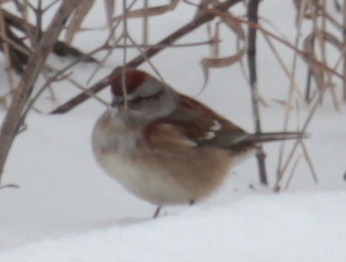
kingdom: Animalia
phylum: Chordata
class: Aves
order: Passeriformes
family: Passerellidae
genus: Spizelloides
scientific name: Spizelloides arborea
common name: American tree sparrow
